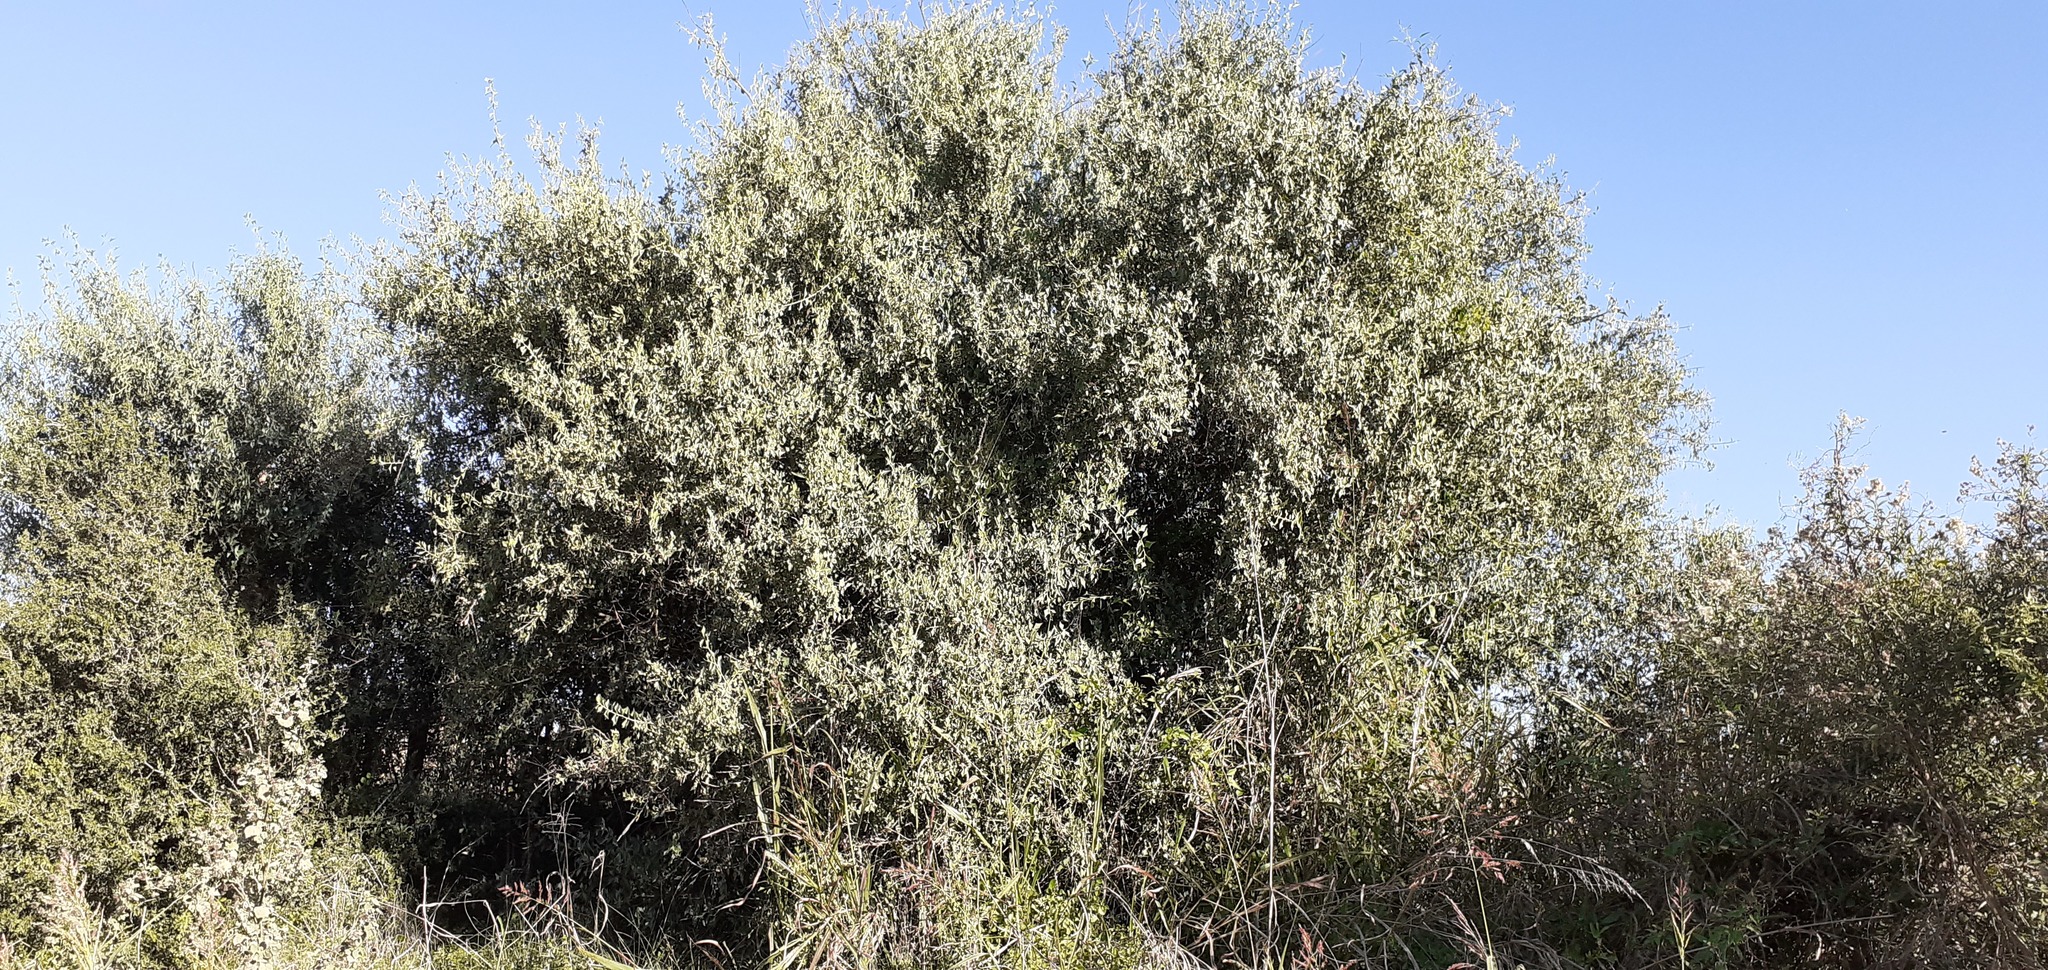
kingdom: Plantae
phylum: Tracheophyta
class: Magnoliopsida
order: Santalales
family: Cervantesiaceae
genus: Jodina
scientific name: Jodina rhombifolia
